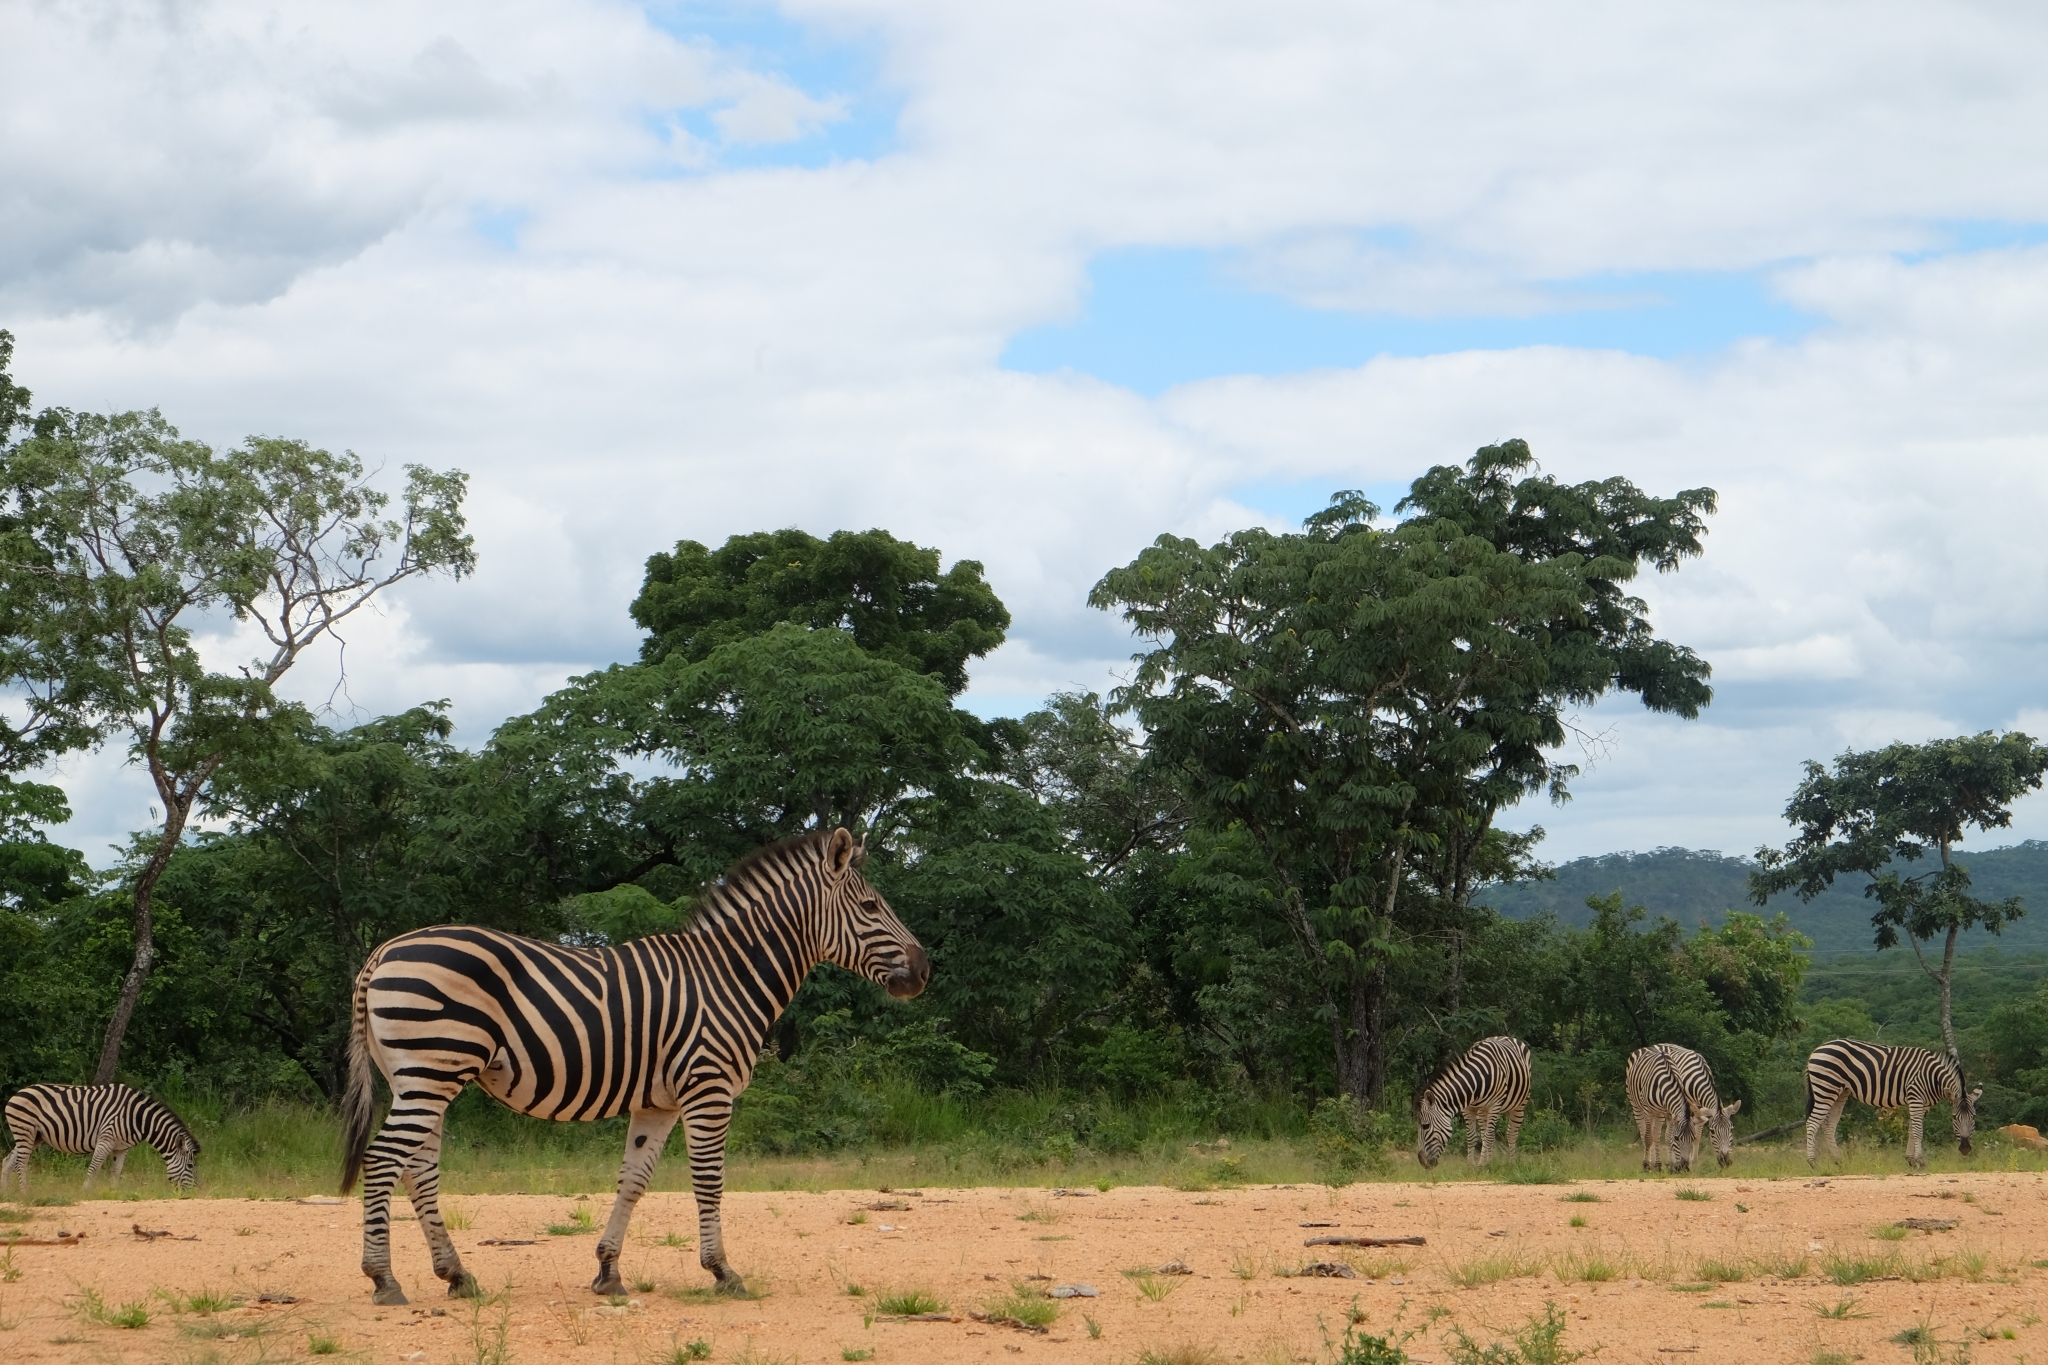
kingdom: Animalia
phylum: Chordata
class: Mammalia
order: Perissodactyla
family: Equidae
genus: Equus
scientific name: Equus quagga
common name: Plains zebra
